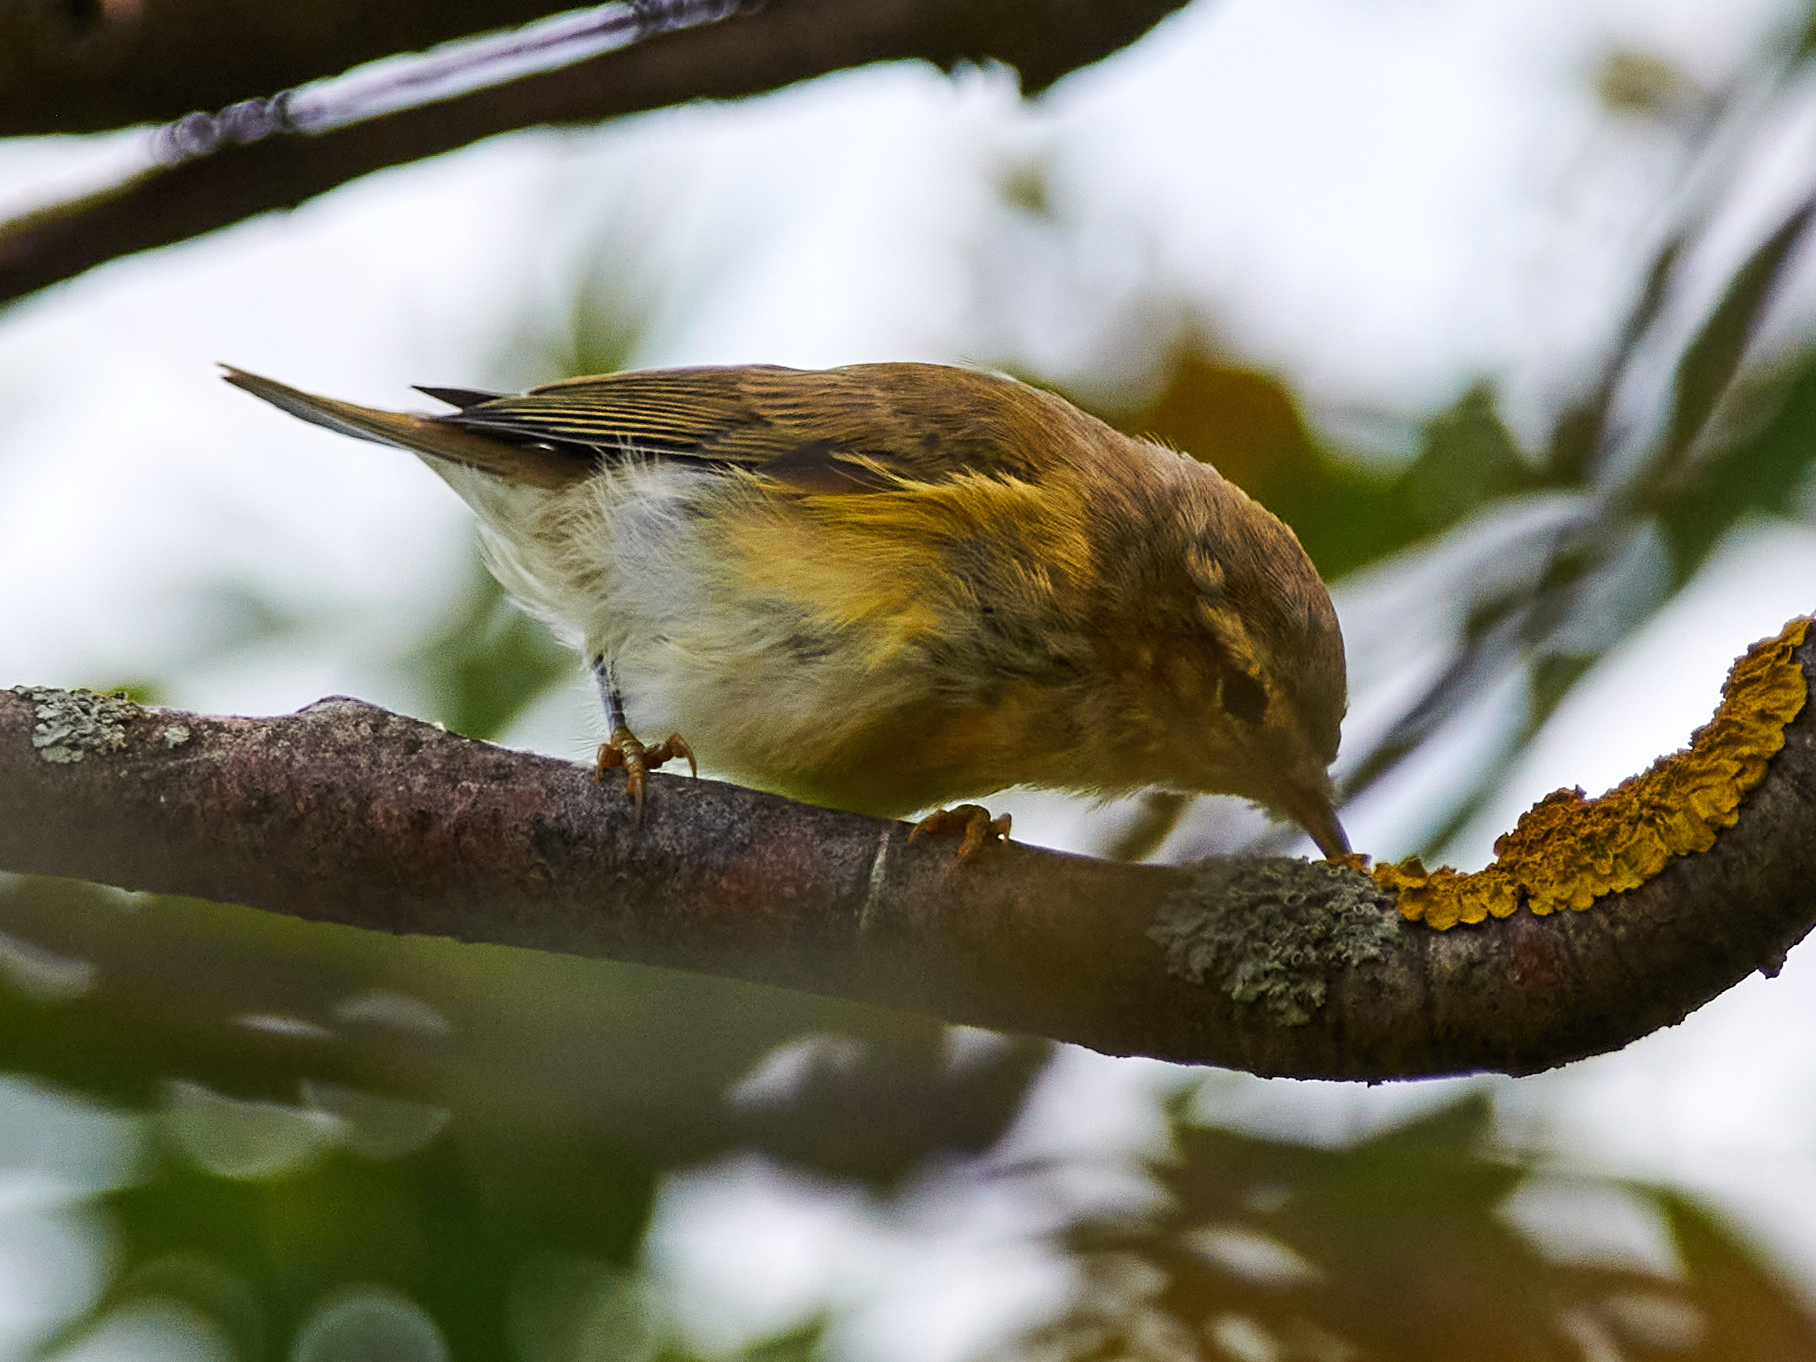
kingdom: Animalia
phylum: Chordata
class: Aves
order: Passeriformes
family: Phylloscopidae
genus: Phylloscopus
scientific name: Phylloscopus trochilus
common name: Willow warbler
